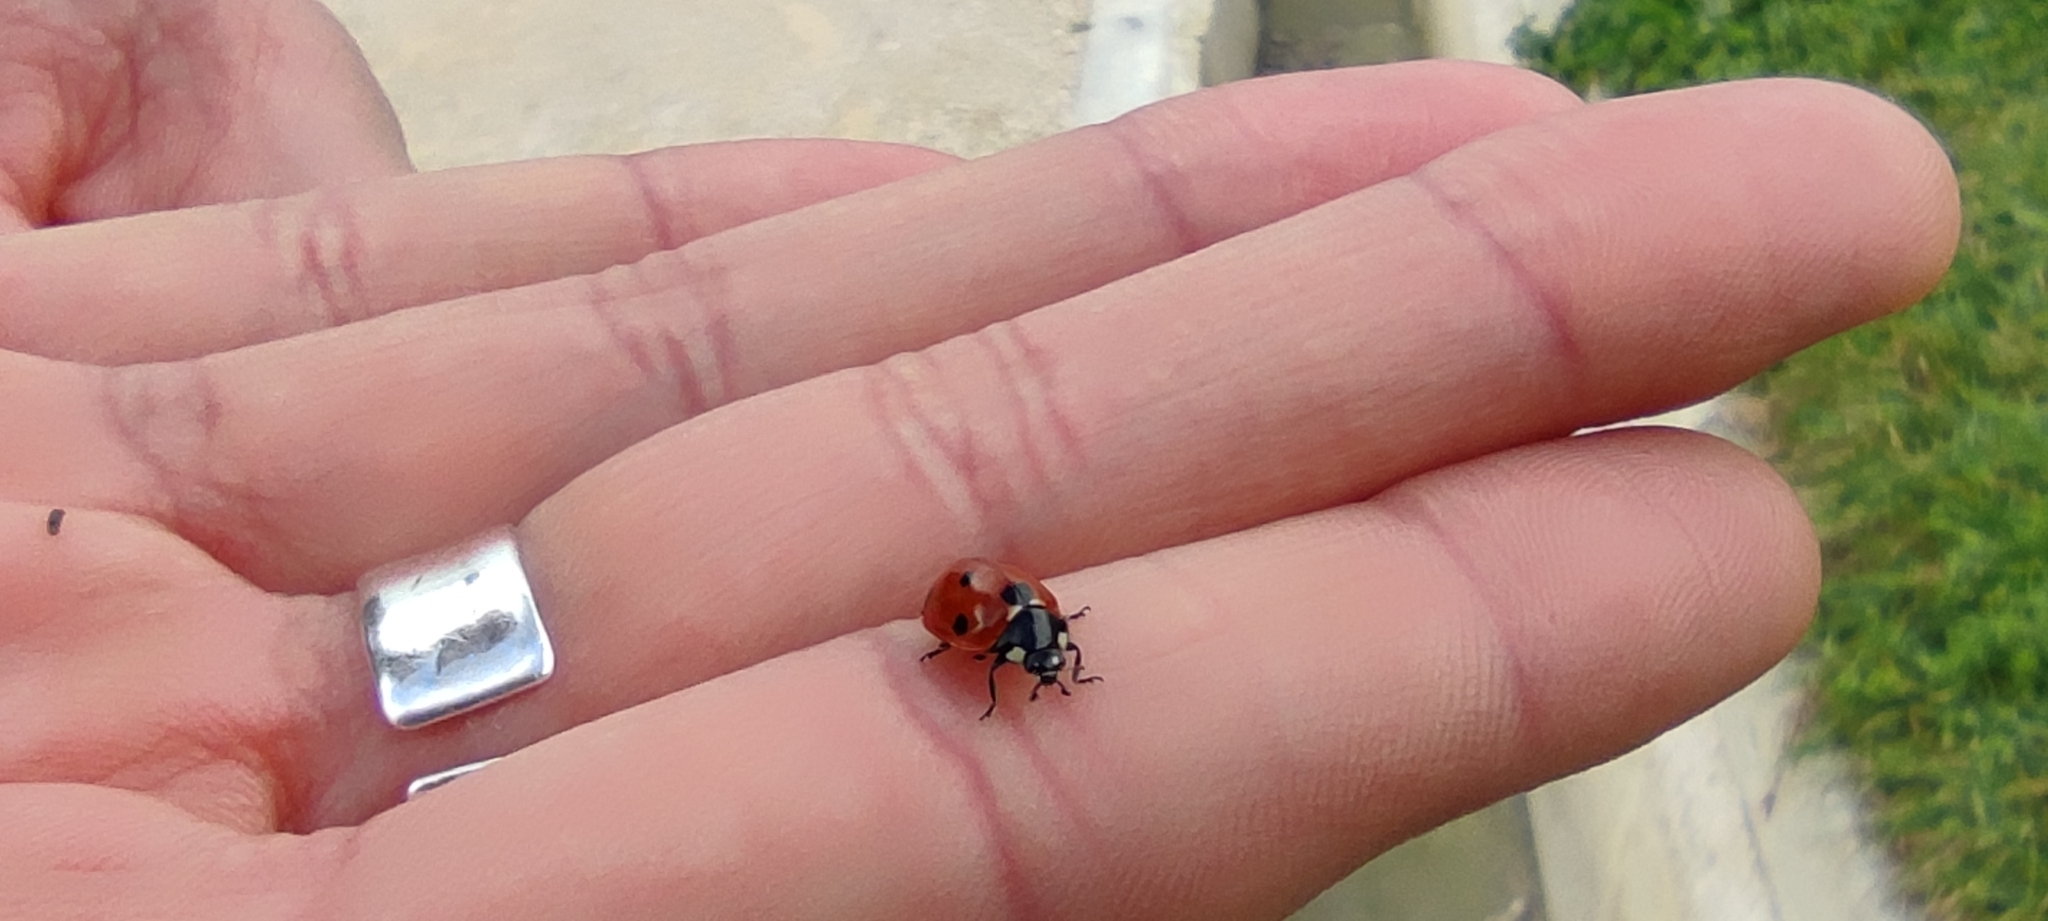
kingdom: Animalia
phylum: Arthropoda
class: Insecta
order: Coleoptera
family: Coccinellidae
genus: Coccinella
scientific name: Coccinella septempunctata
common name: Sevenspotted lady beetle
